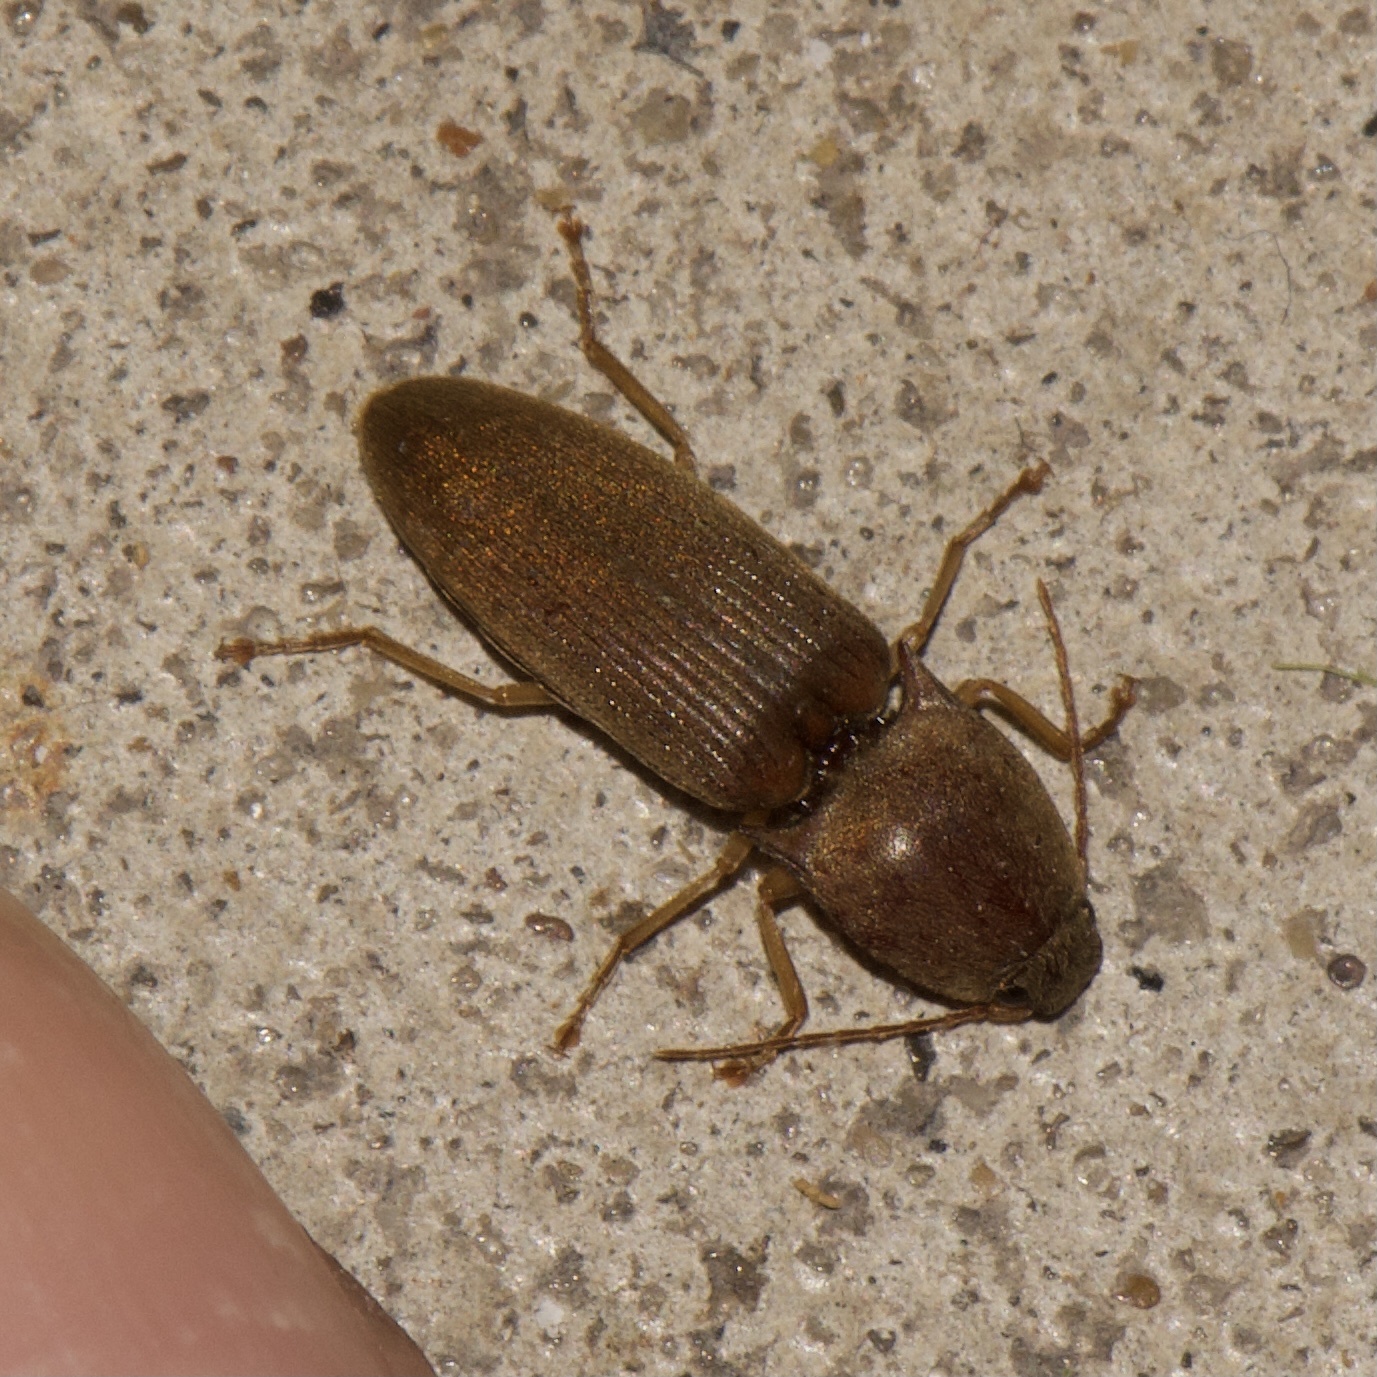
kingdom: Animalia
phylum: Arthropoda
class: Insecta
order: Coleoptera
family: Elateridae
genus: Monocrepidius
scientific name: Monocrepidius lividus
